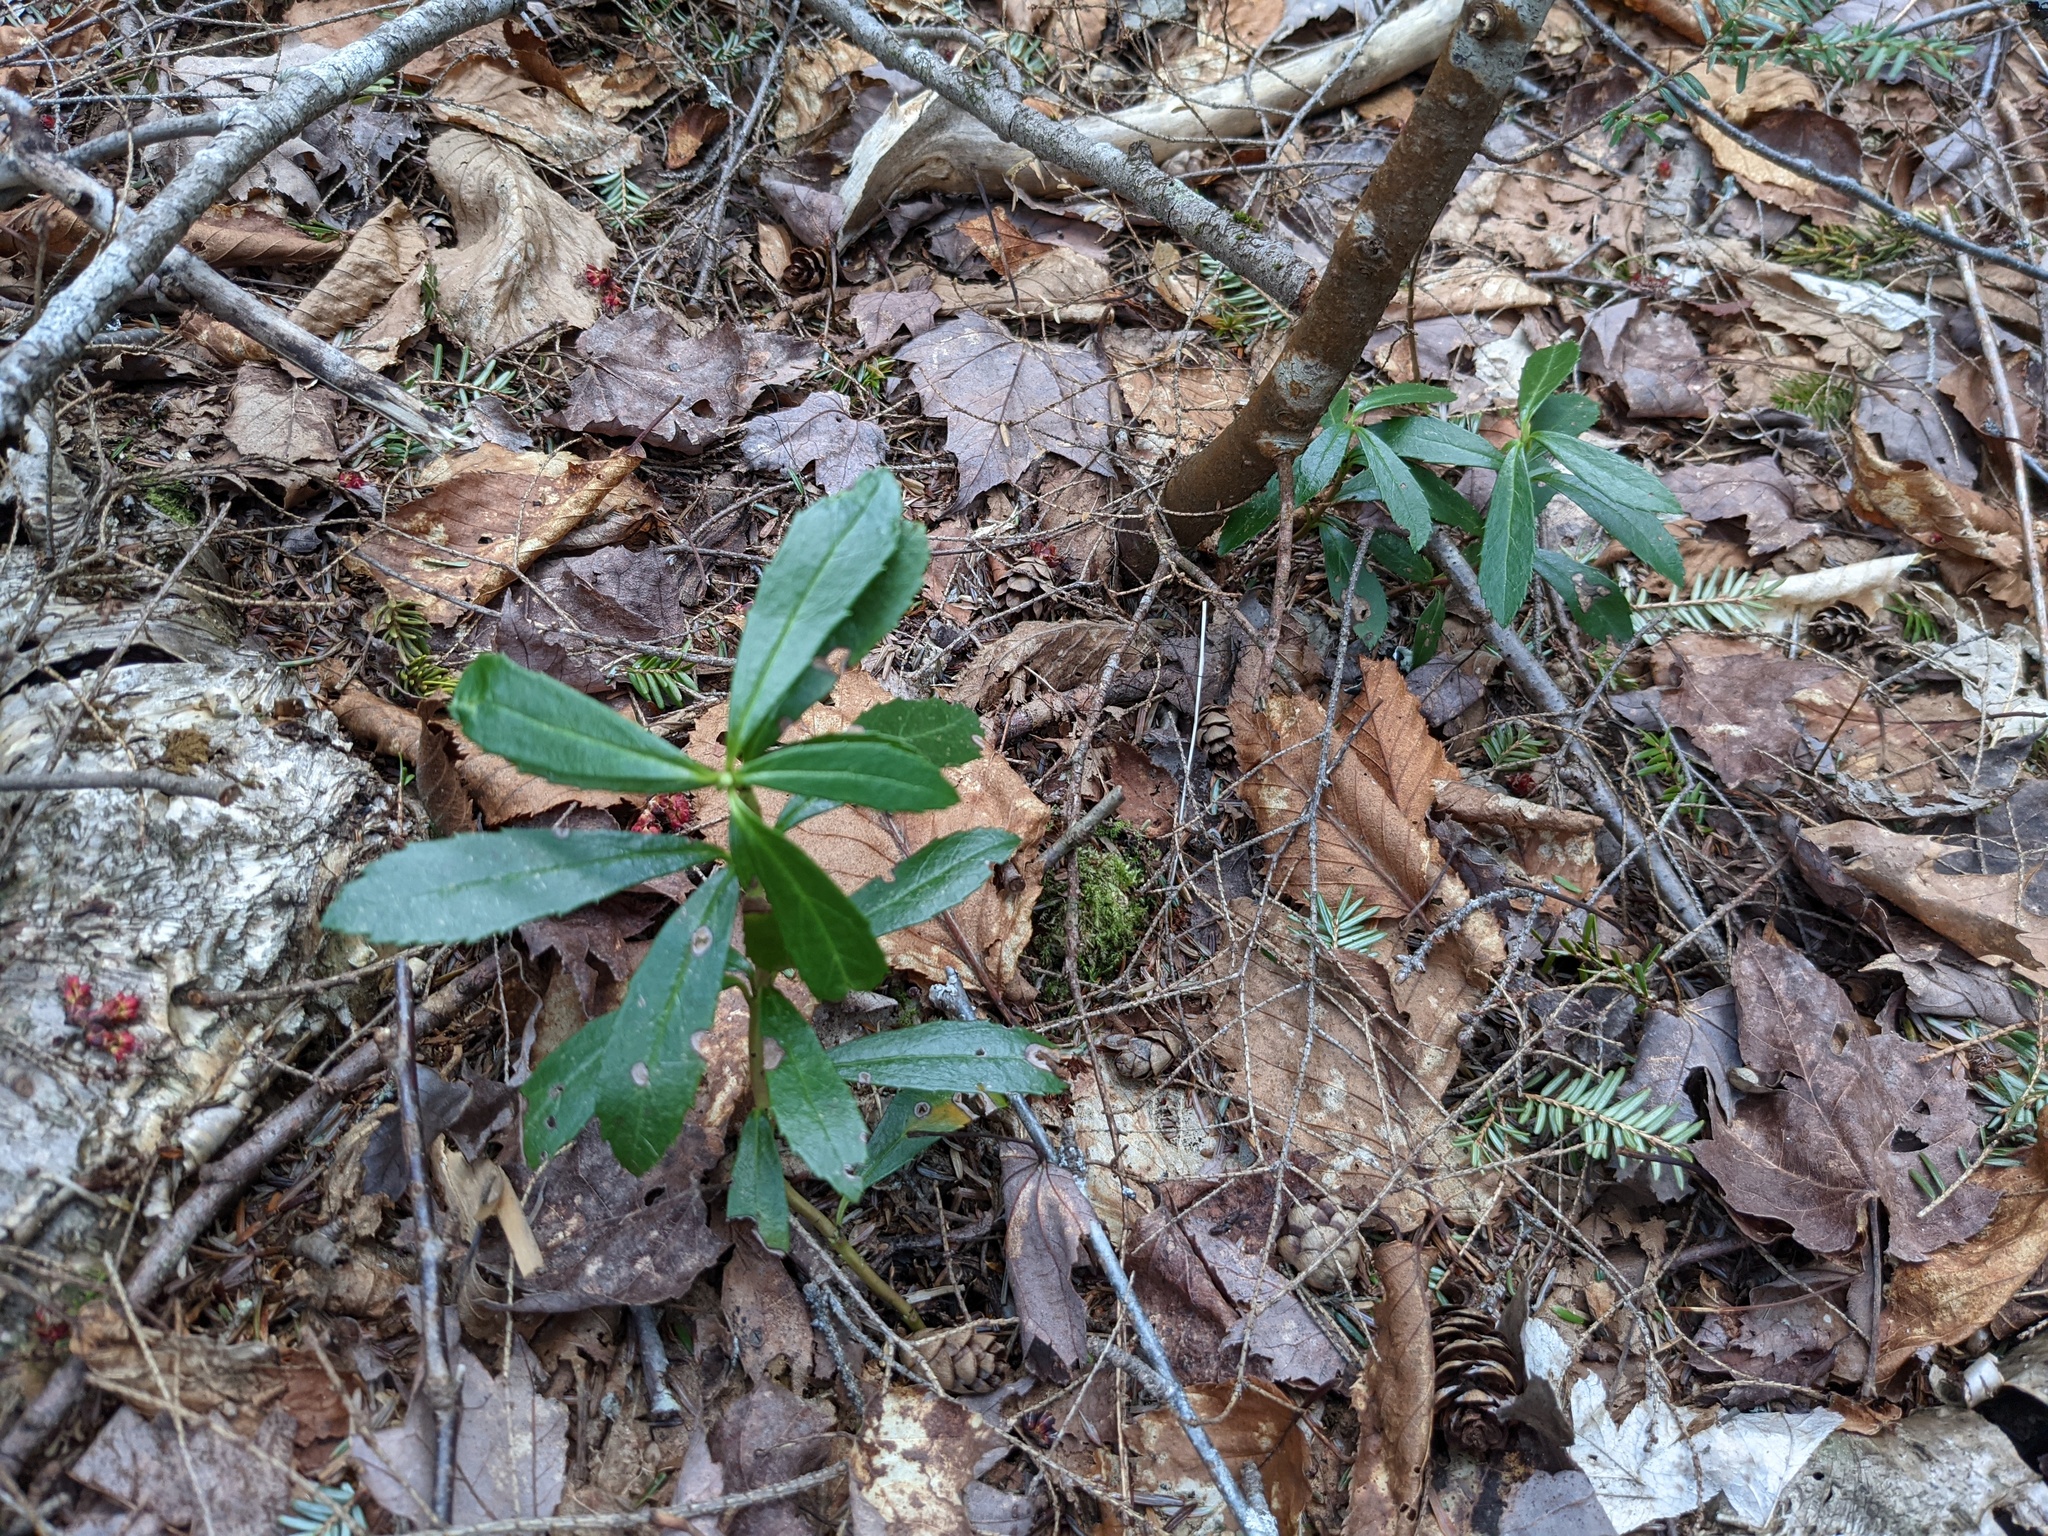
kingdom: Plantae
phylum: Tracheophyta
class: Magnoliopsida
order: Ericales
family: Ericaceae
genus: Chimaphila
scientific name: Chimaphila umbellata
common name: Pipsissewa
